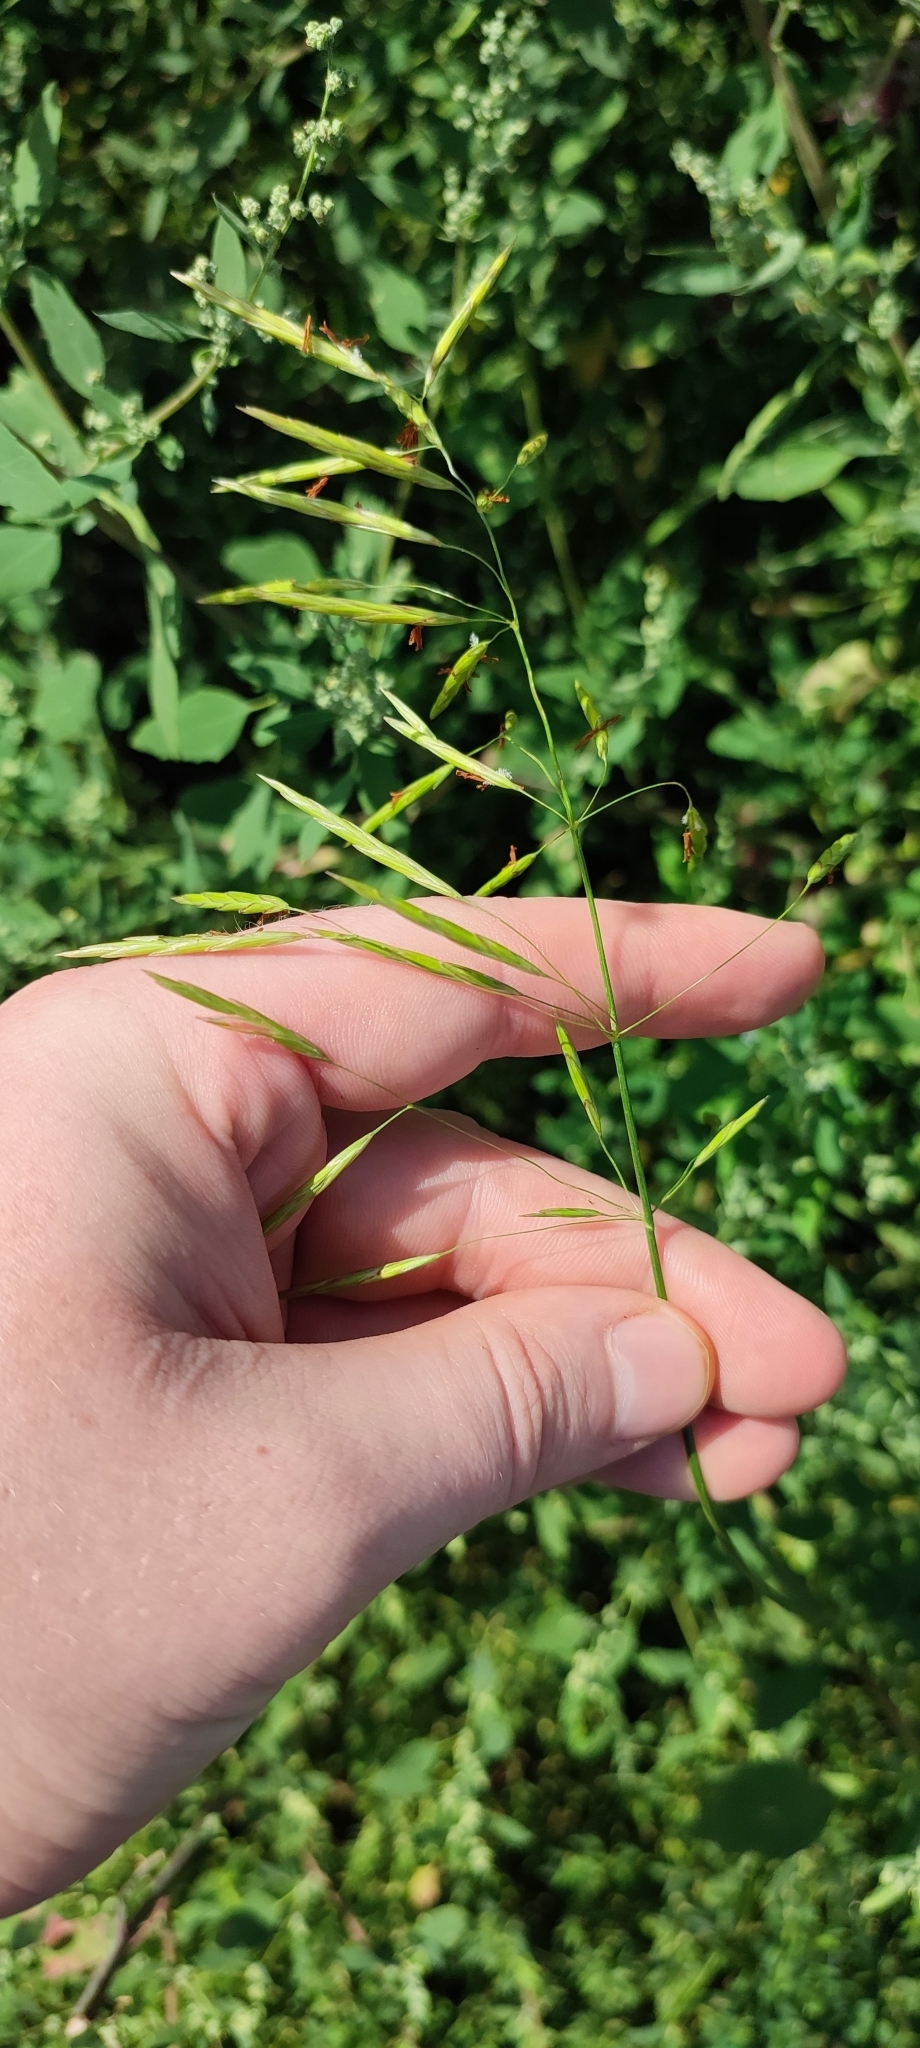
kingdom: Plantae
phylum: Tracheophyta
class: Liliopsida
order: Poales
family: Poaceae
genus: Bromus
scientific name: Bromus inermis
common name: Smooth brome
